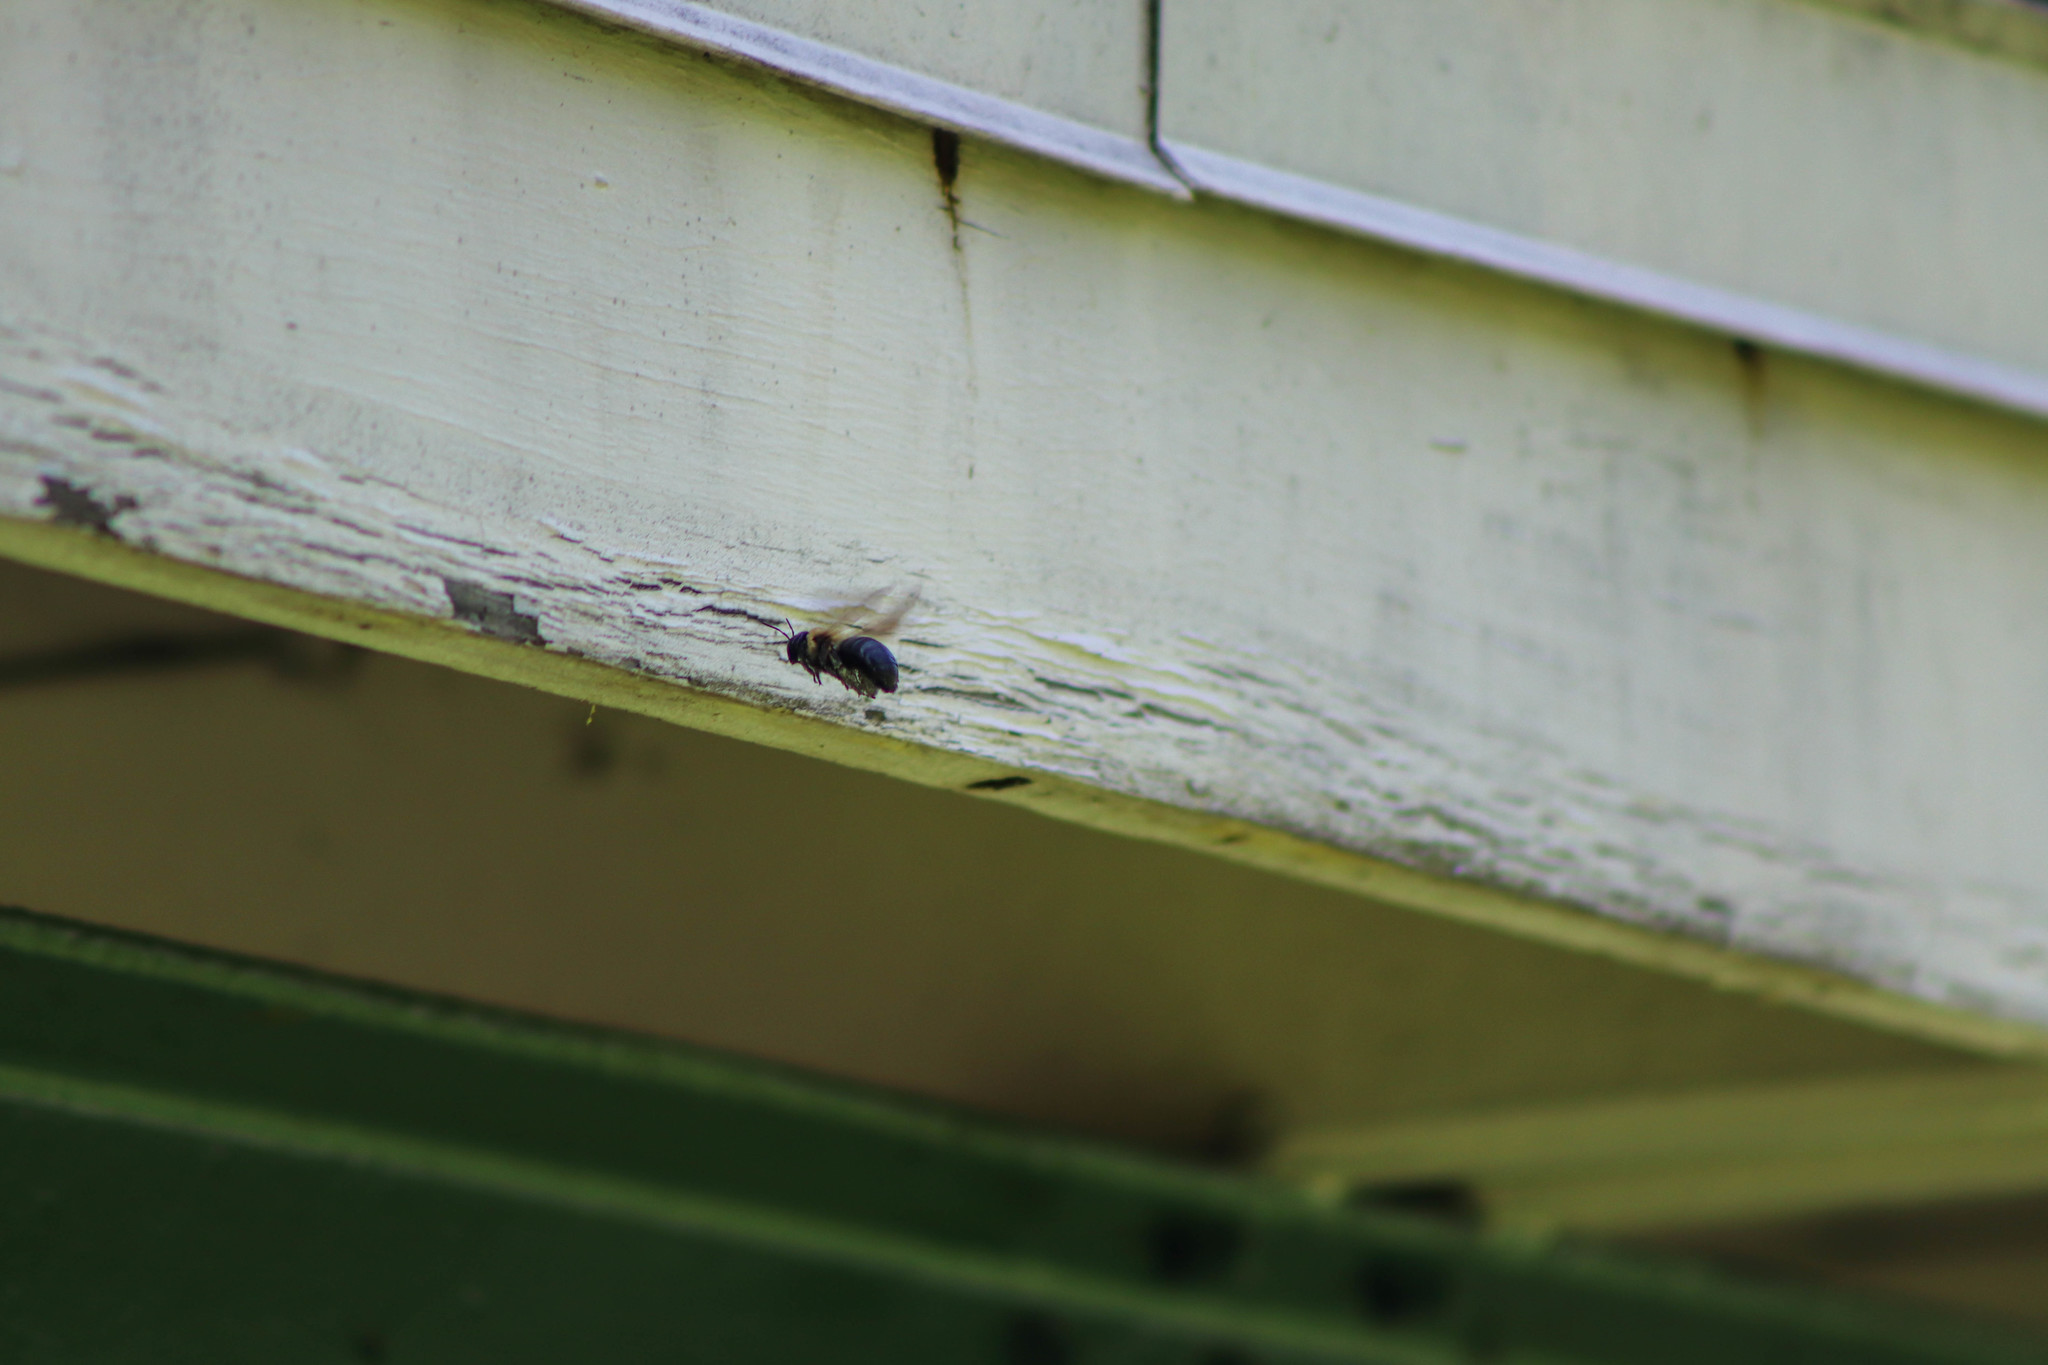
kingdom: Animalia
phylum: Arthropoda
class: Insecta
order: Hymenoptera
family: Apidae
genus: Xylocopa
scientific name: Xylocopa virginica
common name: Carpenter bee
